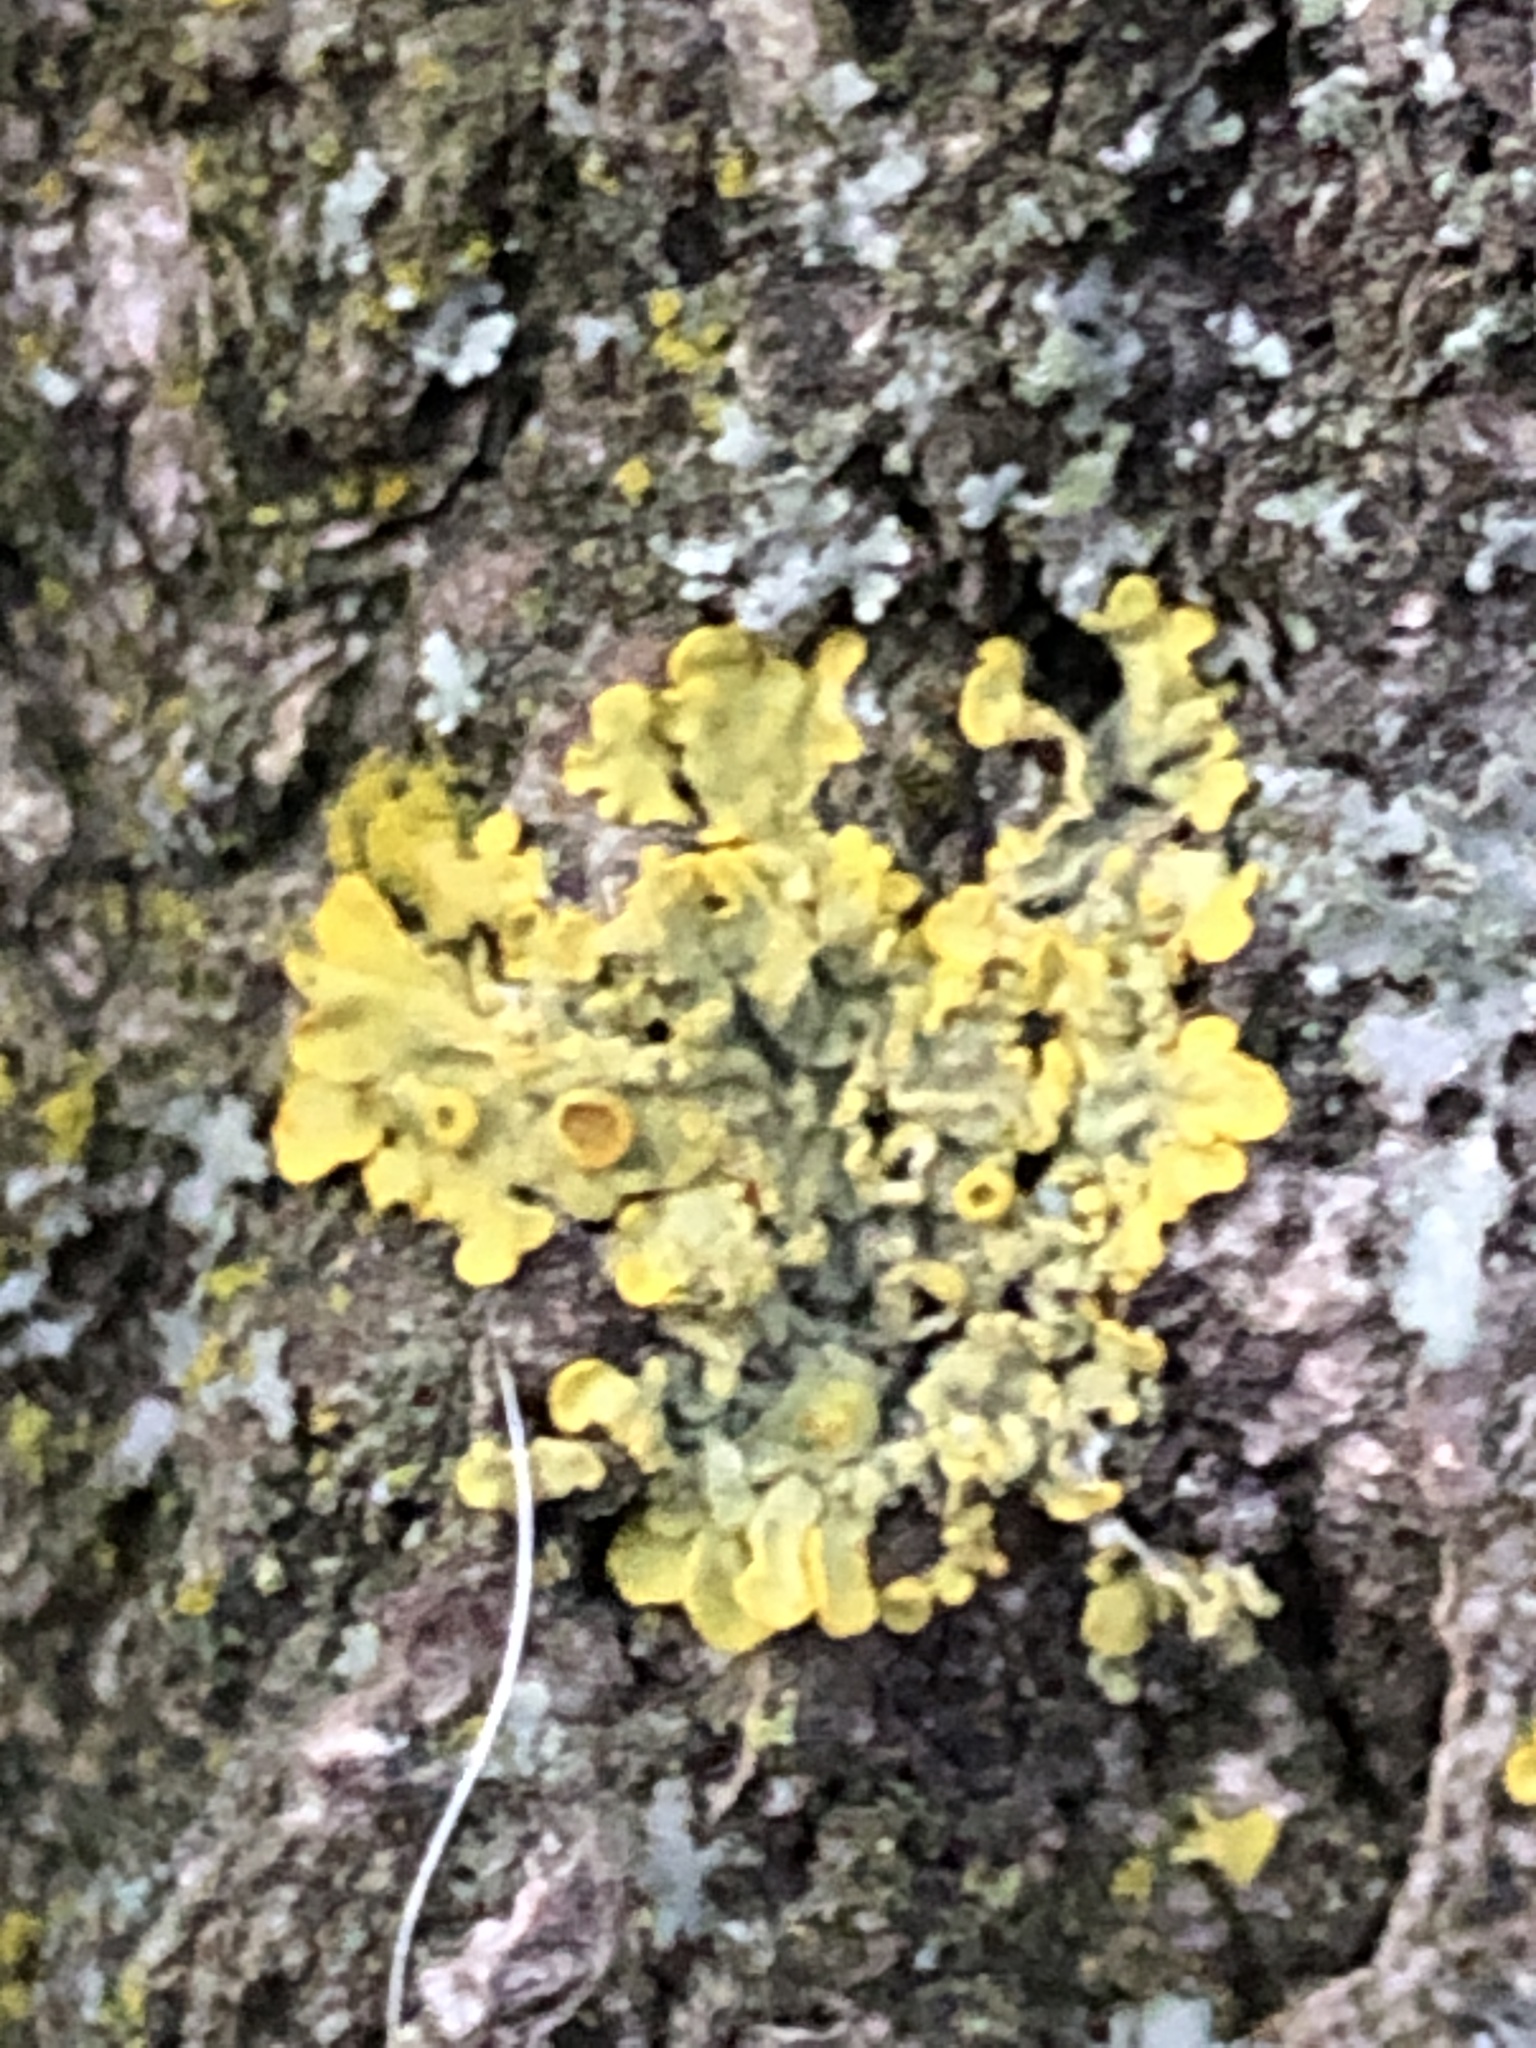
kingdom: Fungi
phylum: Ascomycota
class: Lecanoromycetes
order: Teloschistales
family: Teloschistaceae
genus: Xanthoria
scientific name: Xanthoria parietina
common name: Common orange lichen
